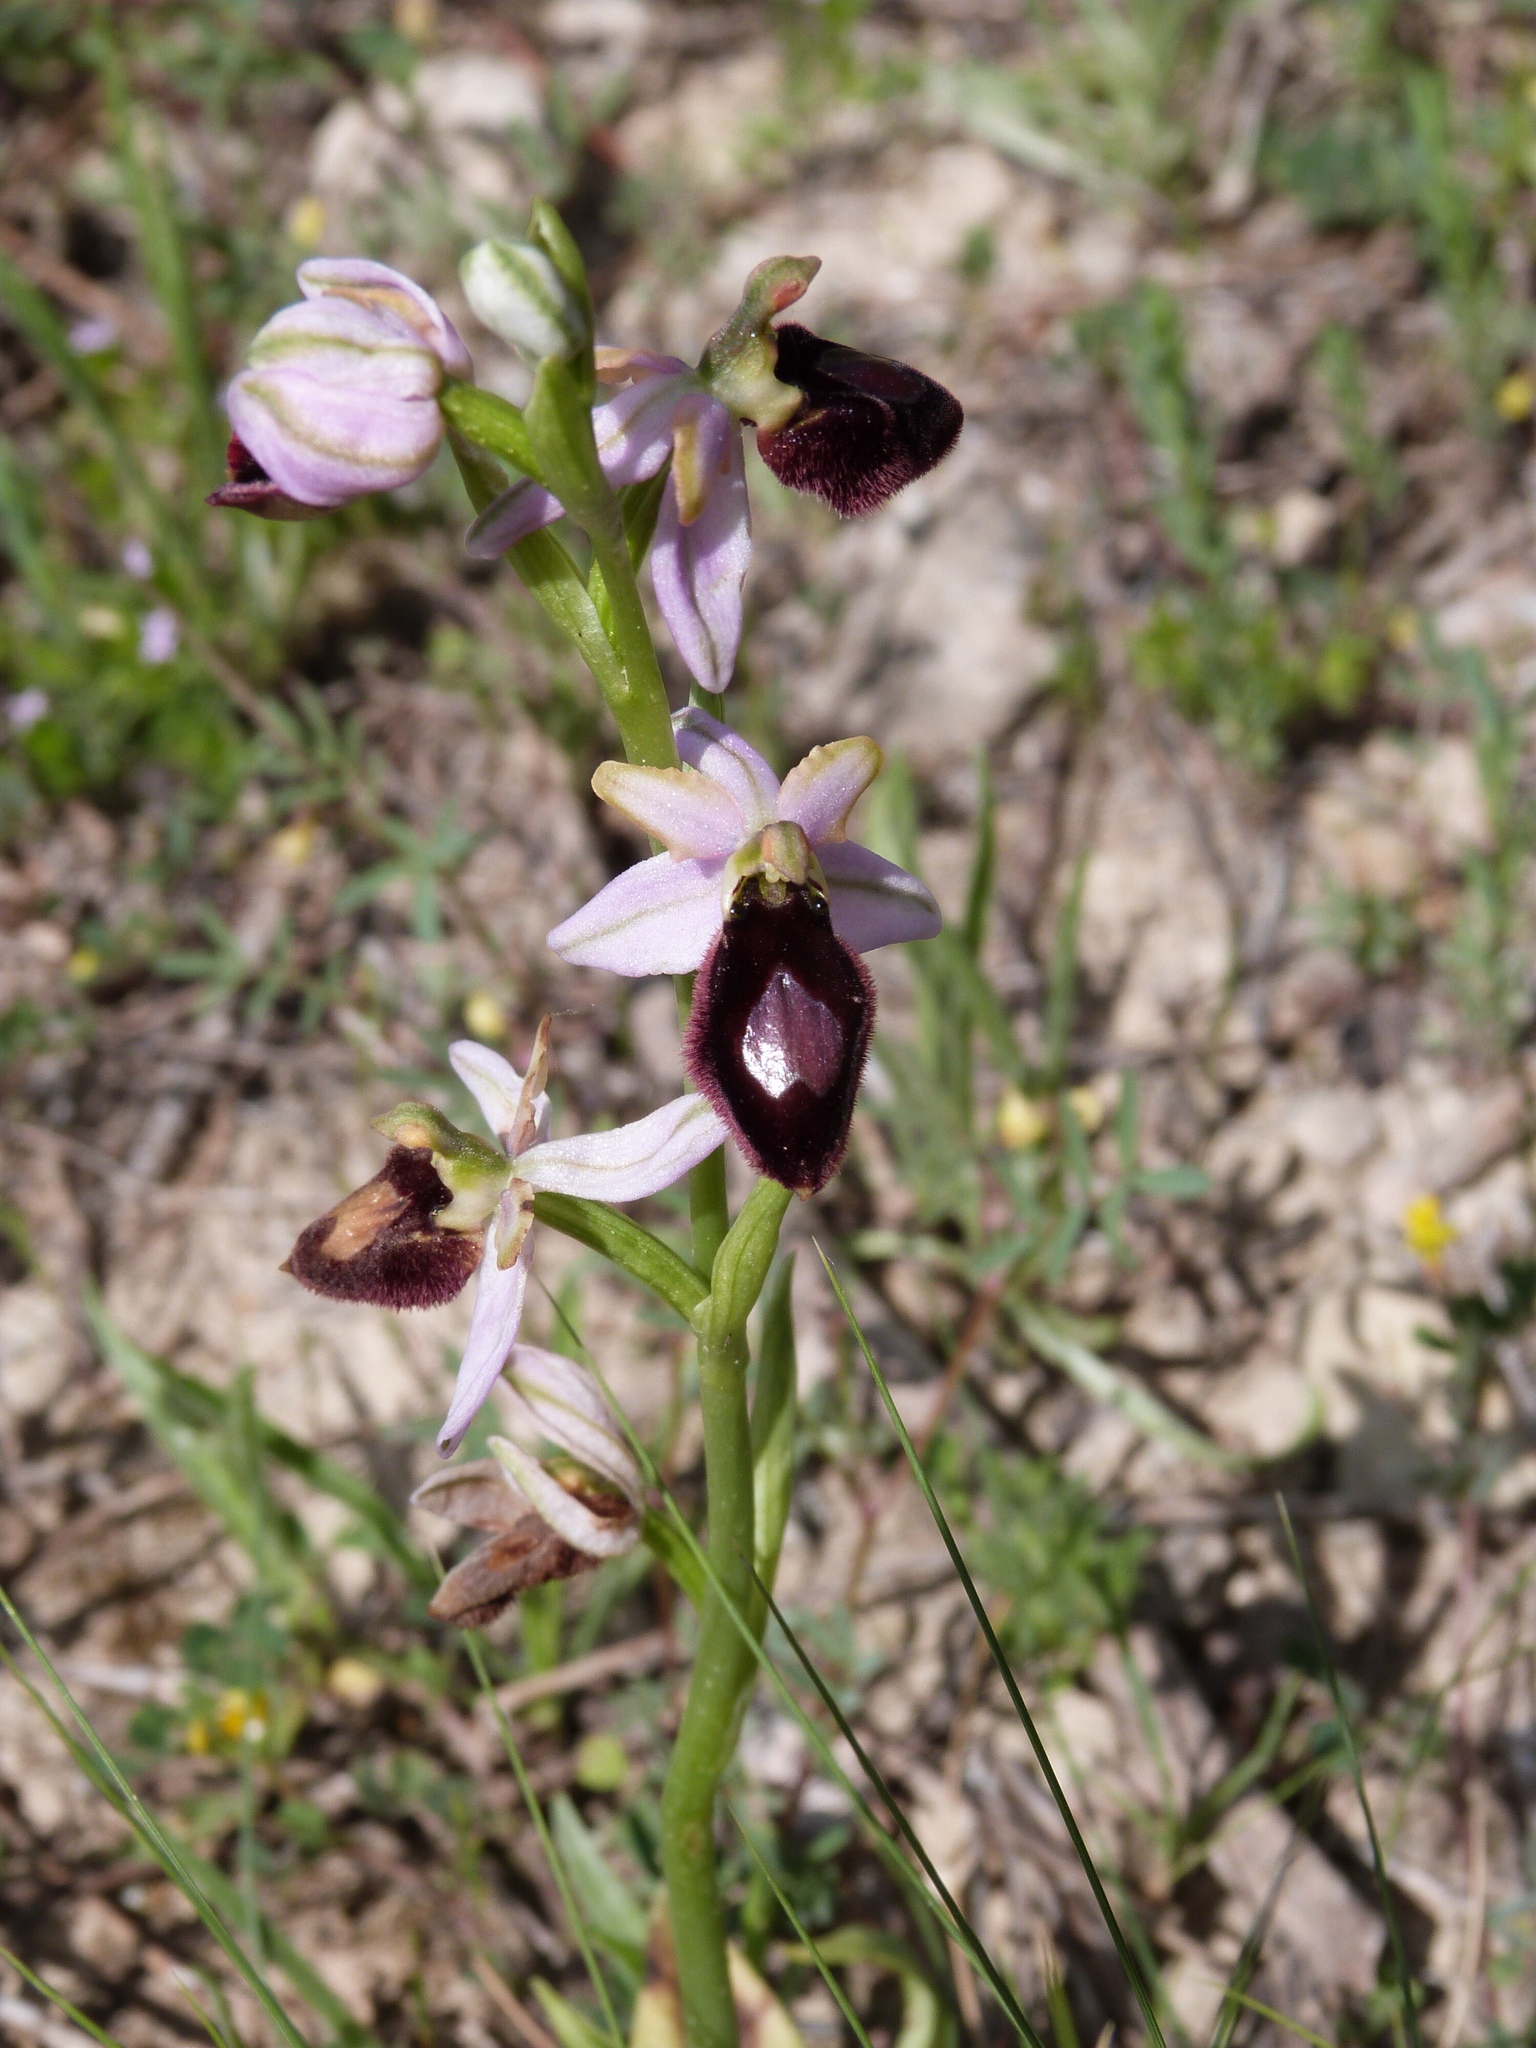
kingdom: Plantae
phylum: Tracheophyta
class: Liliopsida
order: Asparagales
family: Orchidaceae
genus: Ophrys
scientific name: Ophrys flavicans
